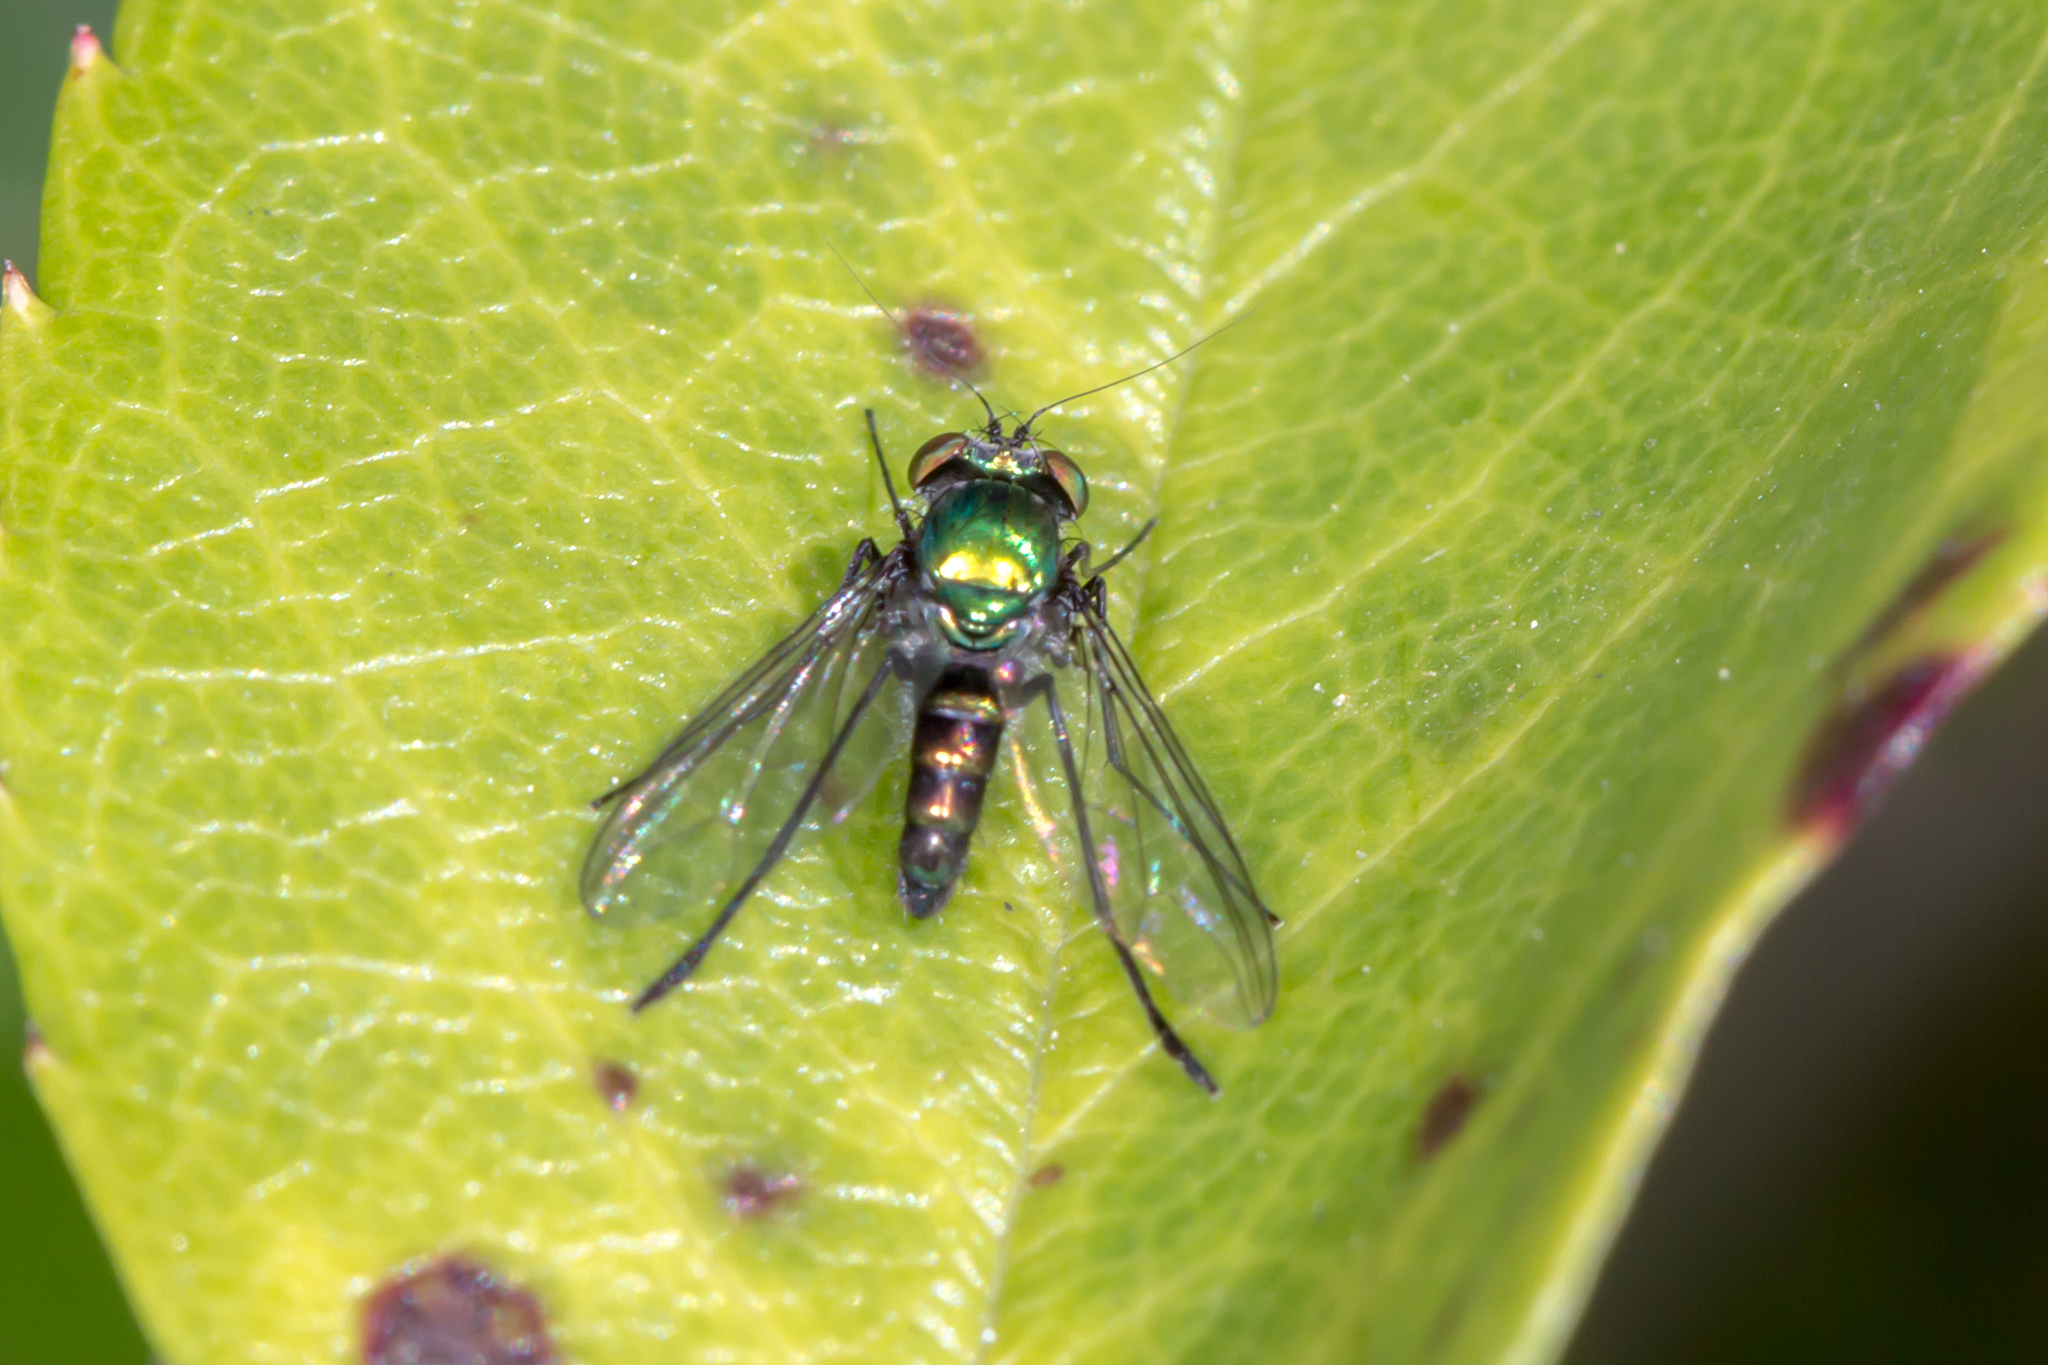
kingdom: Animalia
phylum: Arthropoda
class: Insecta
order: Diptera
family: Dolichopodidae
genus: Parentia
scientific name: Parentia vulgaris
